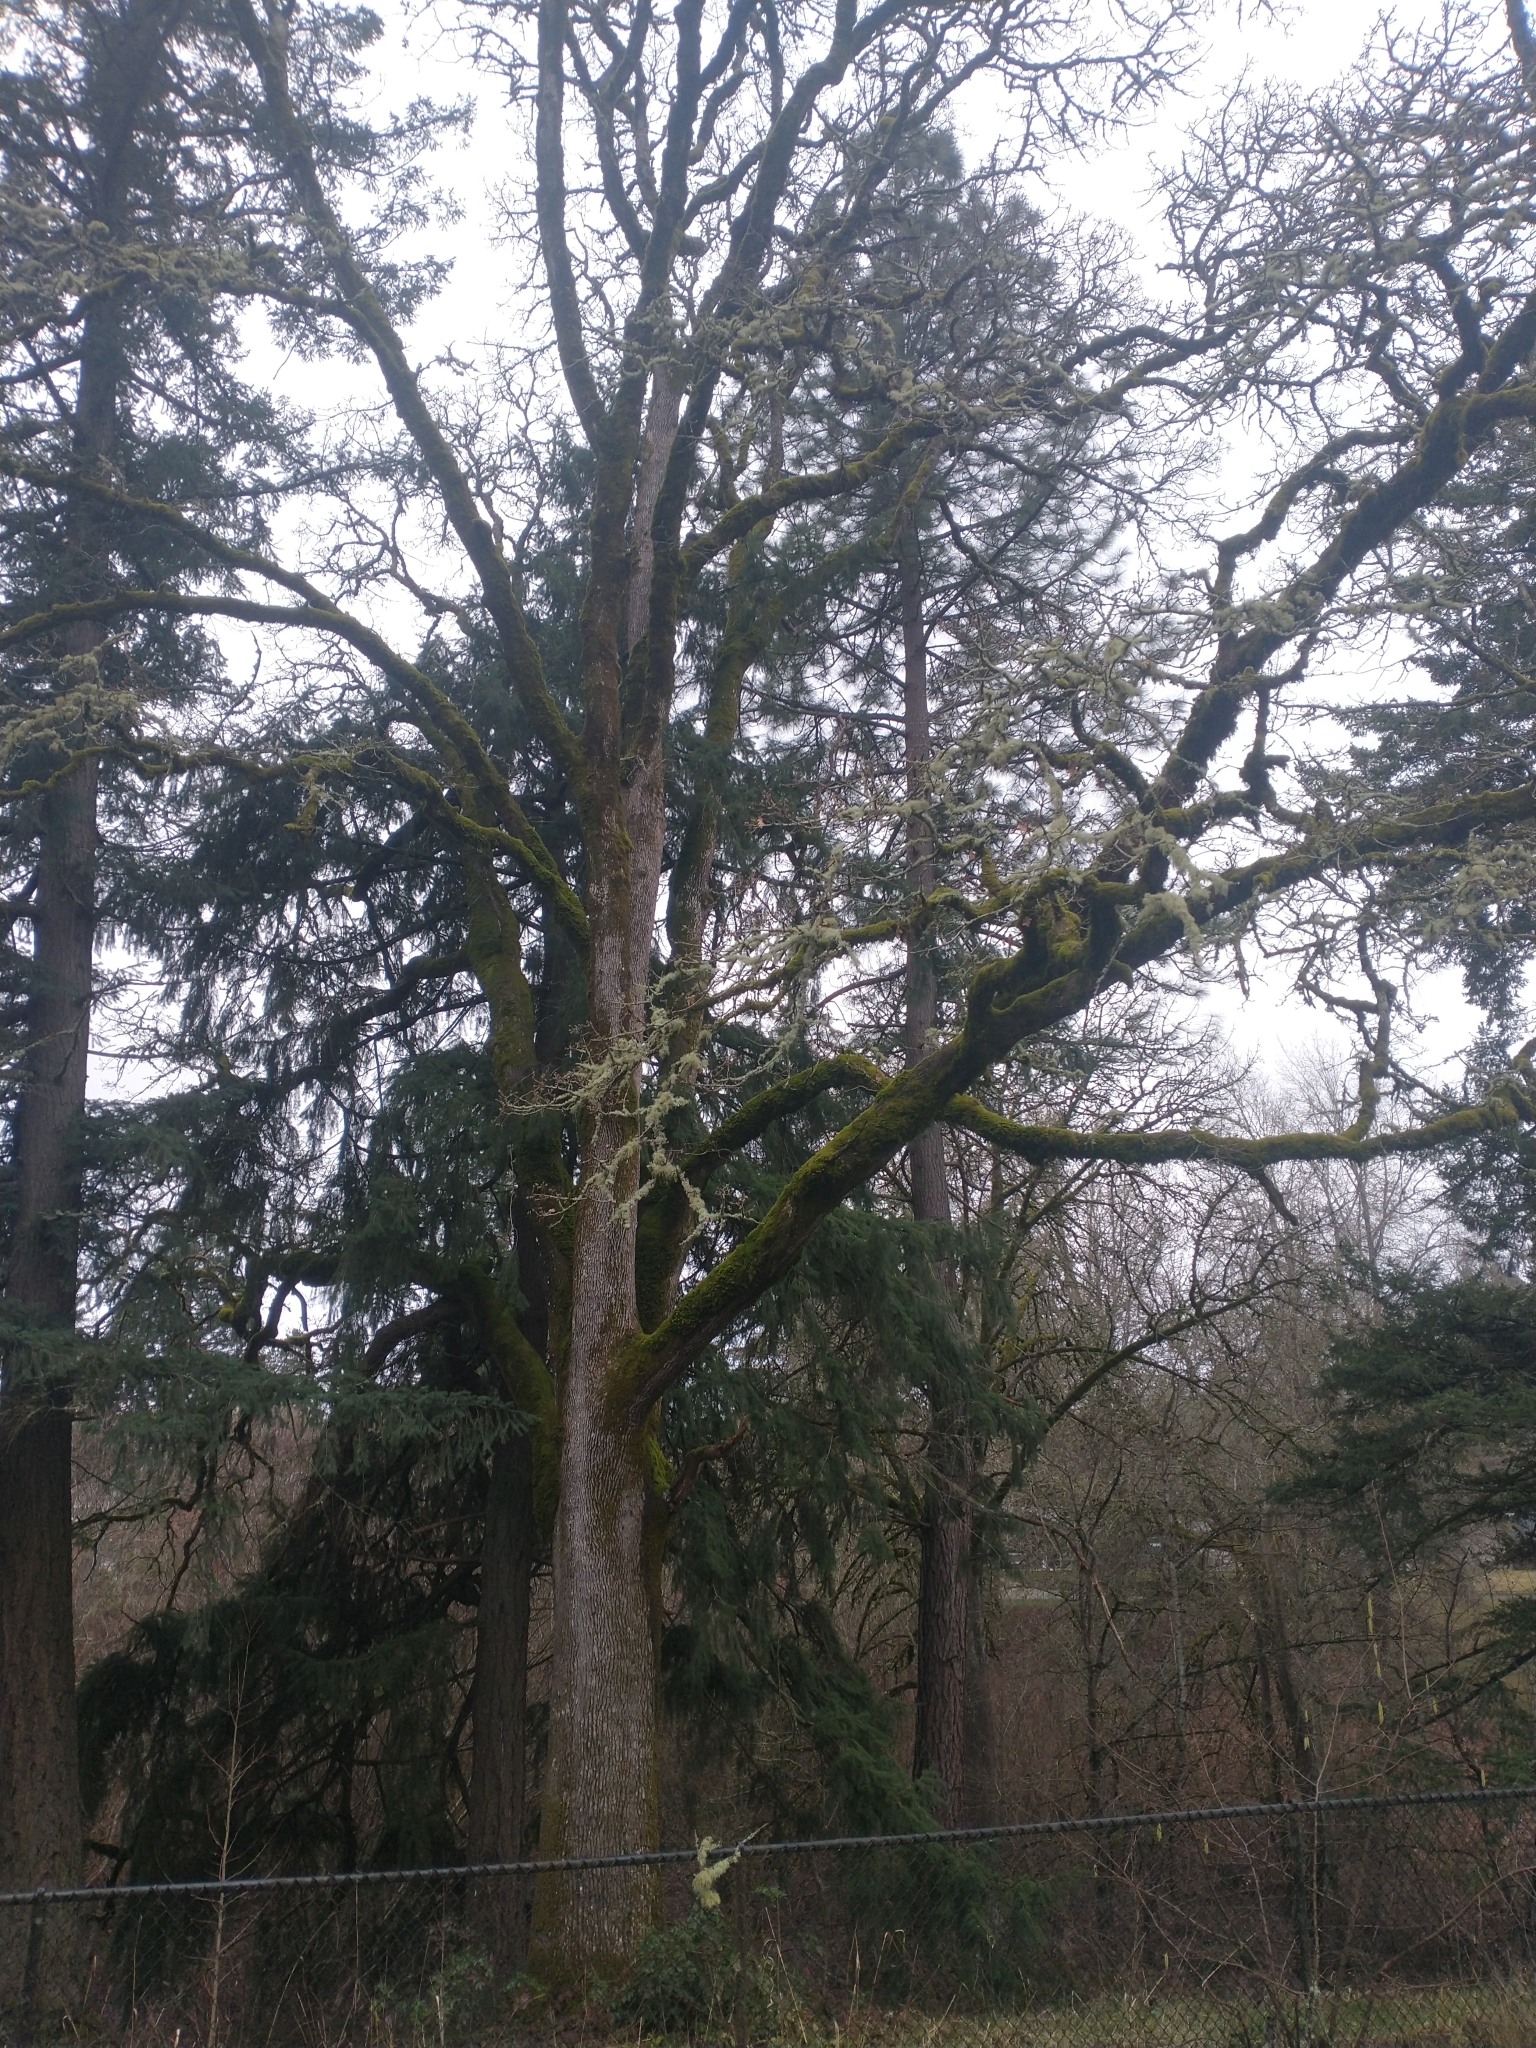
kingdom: Plantae
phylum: Tracheophyta
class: Pinopsida
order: Pinales
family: Pinaceae
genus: Pinus
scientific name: Pinus ponderosa
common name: Western yellow-pine
